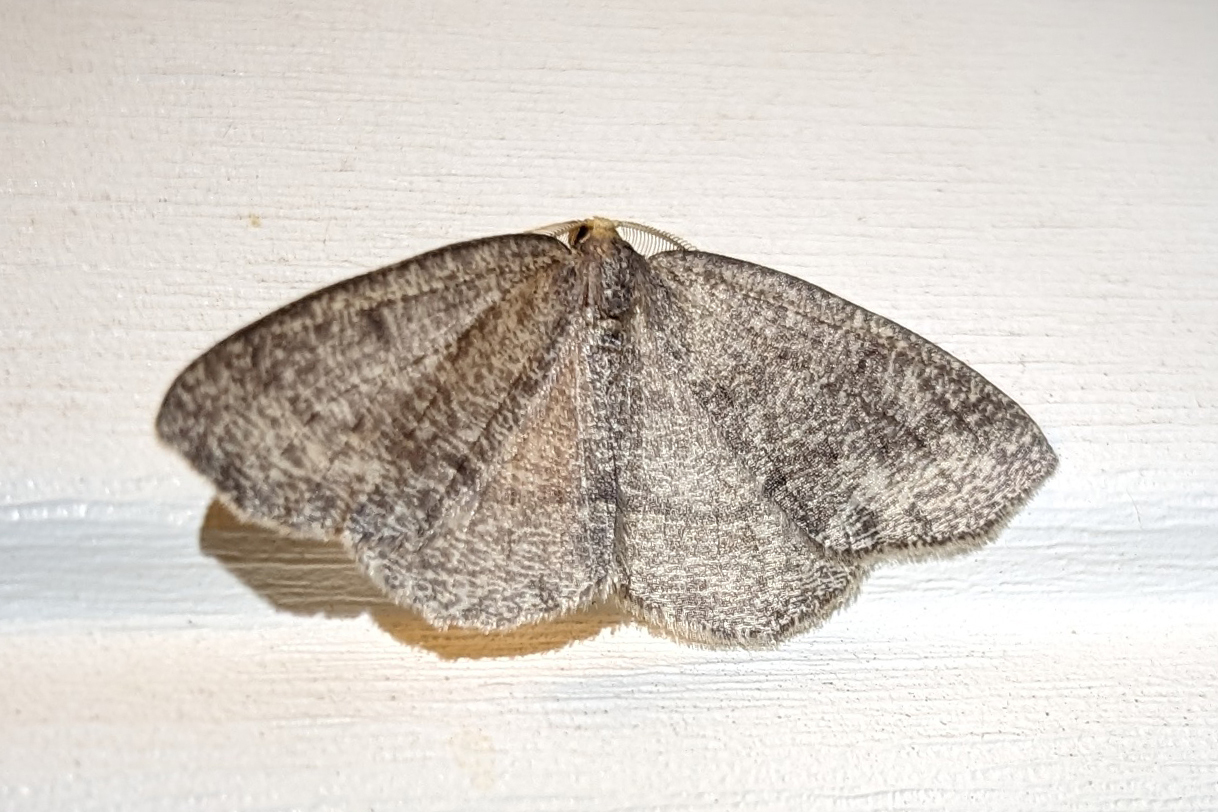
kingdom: Animalia
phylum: Arthropoda
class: Insecta
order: Lepidoptera
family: Geometridae
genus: Lambdina
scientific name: Lambdina fervidaria
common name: Curve-lined looper moth
